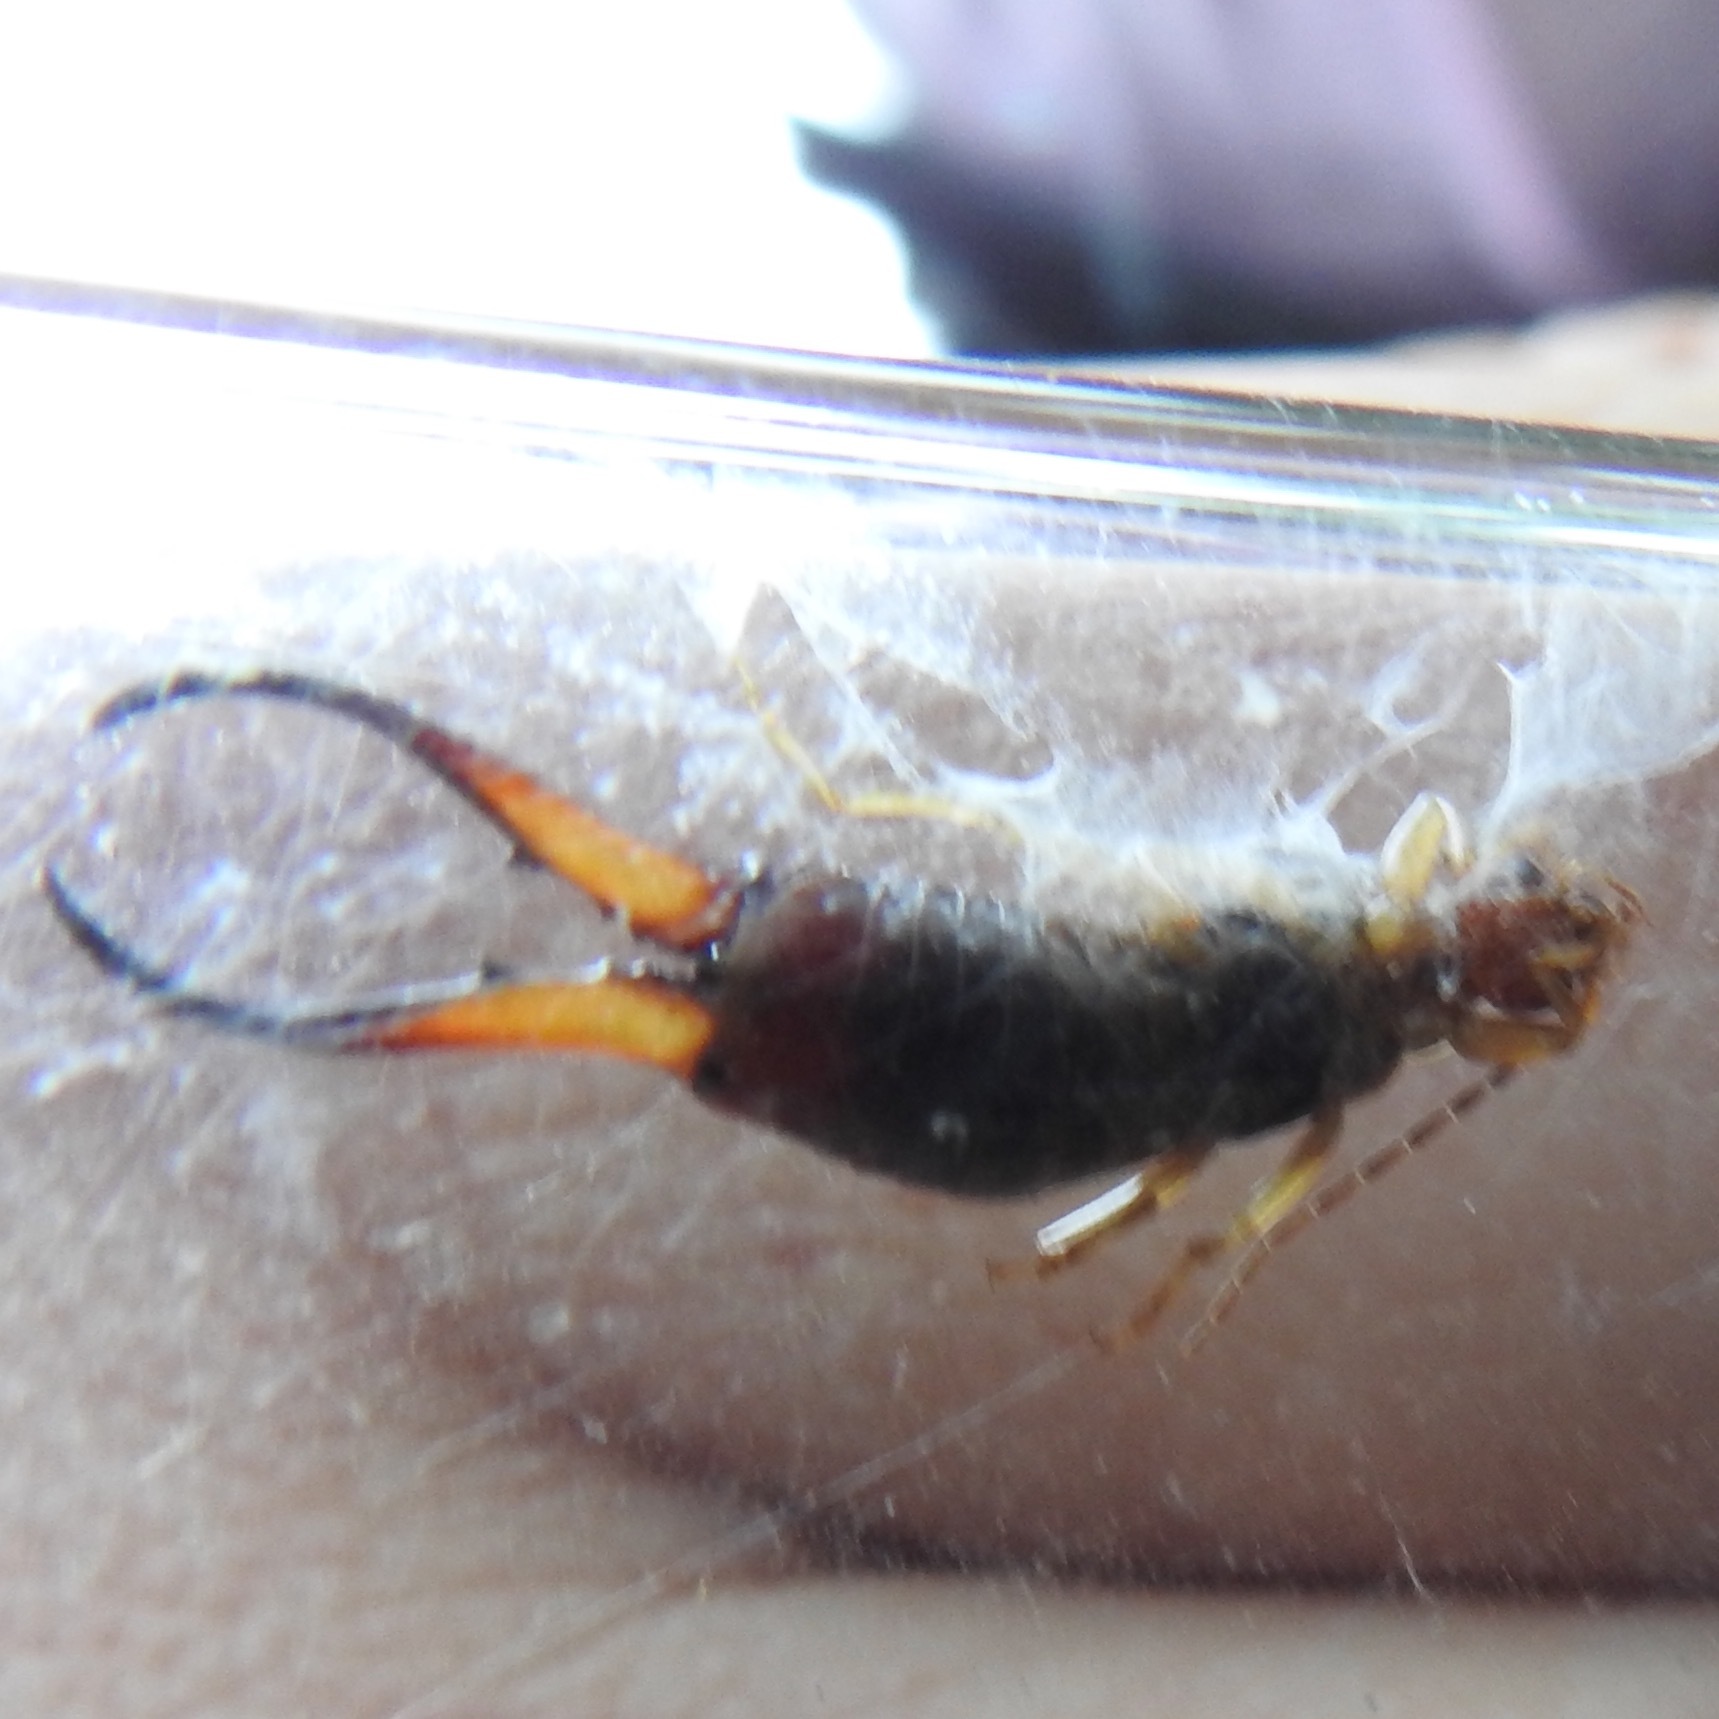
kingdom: Animalia
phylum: Arthropoda
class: Insecta
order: Dermaptera
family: Forficulidae
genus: Forficula
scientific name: Forficula
